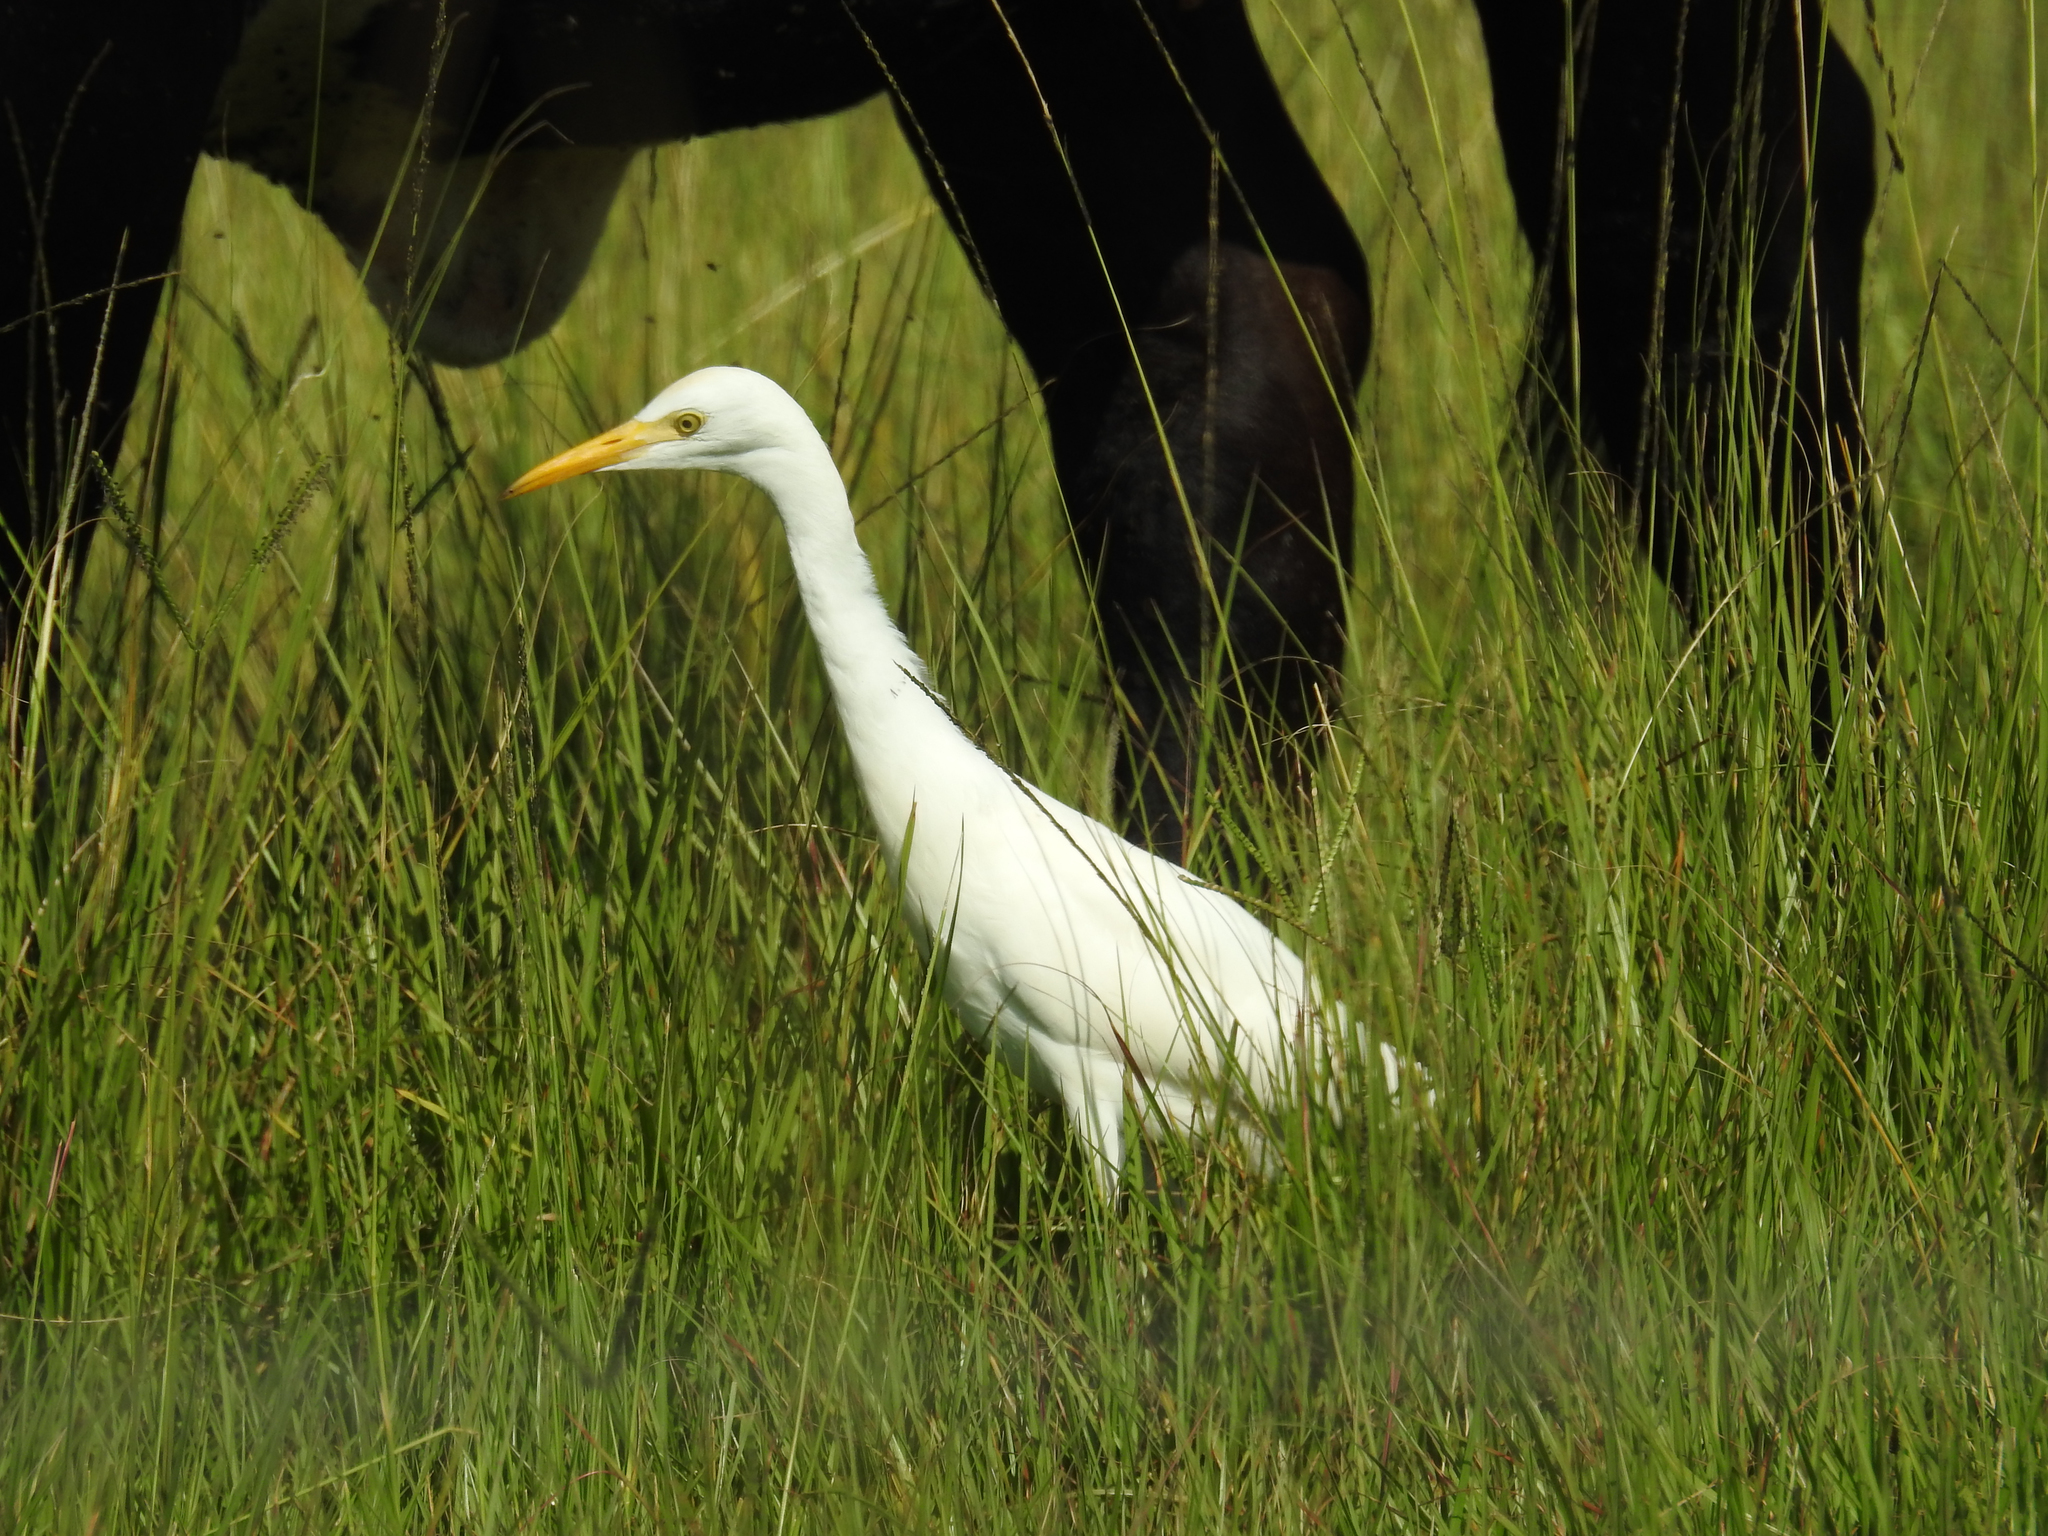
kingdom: Animalia
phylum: Chordata
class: Aves
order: Pelecaniformes
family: Ardeidae
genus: Bubulcus
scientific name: Bubulcus ibis
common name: Cattle egret
